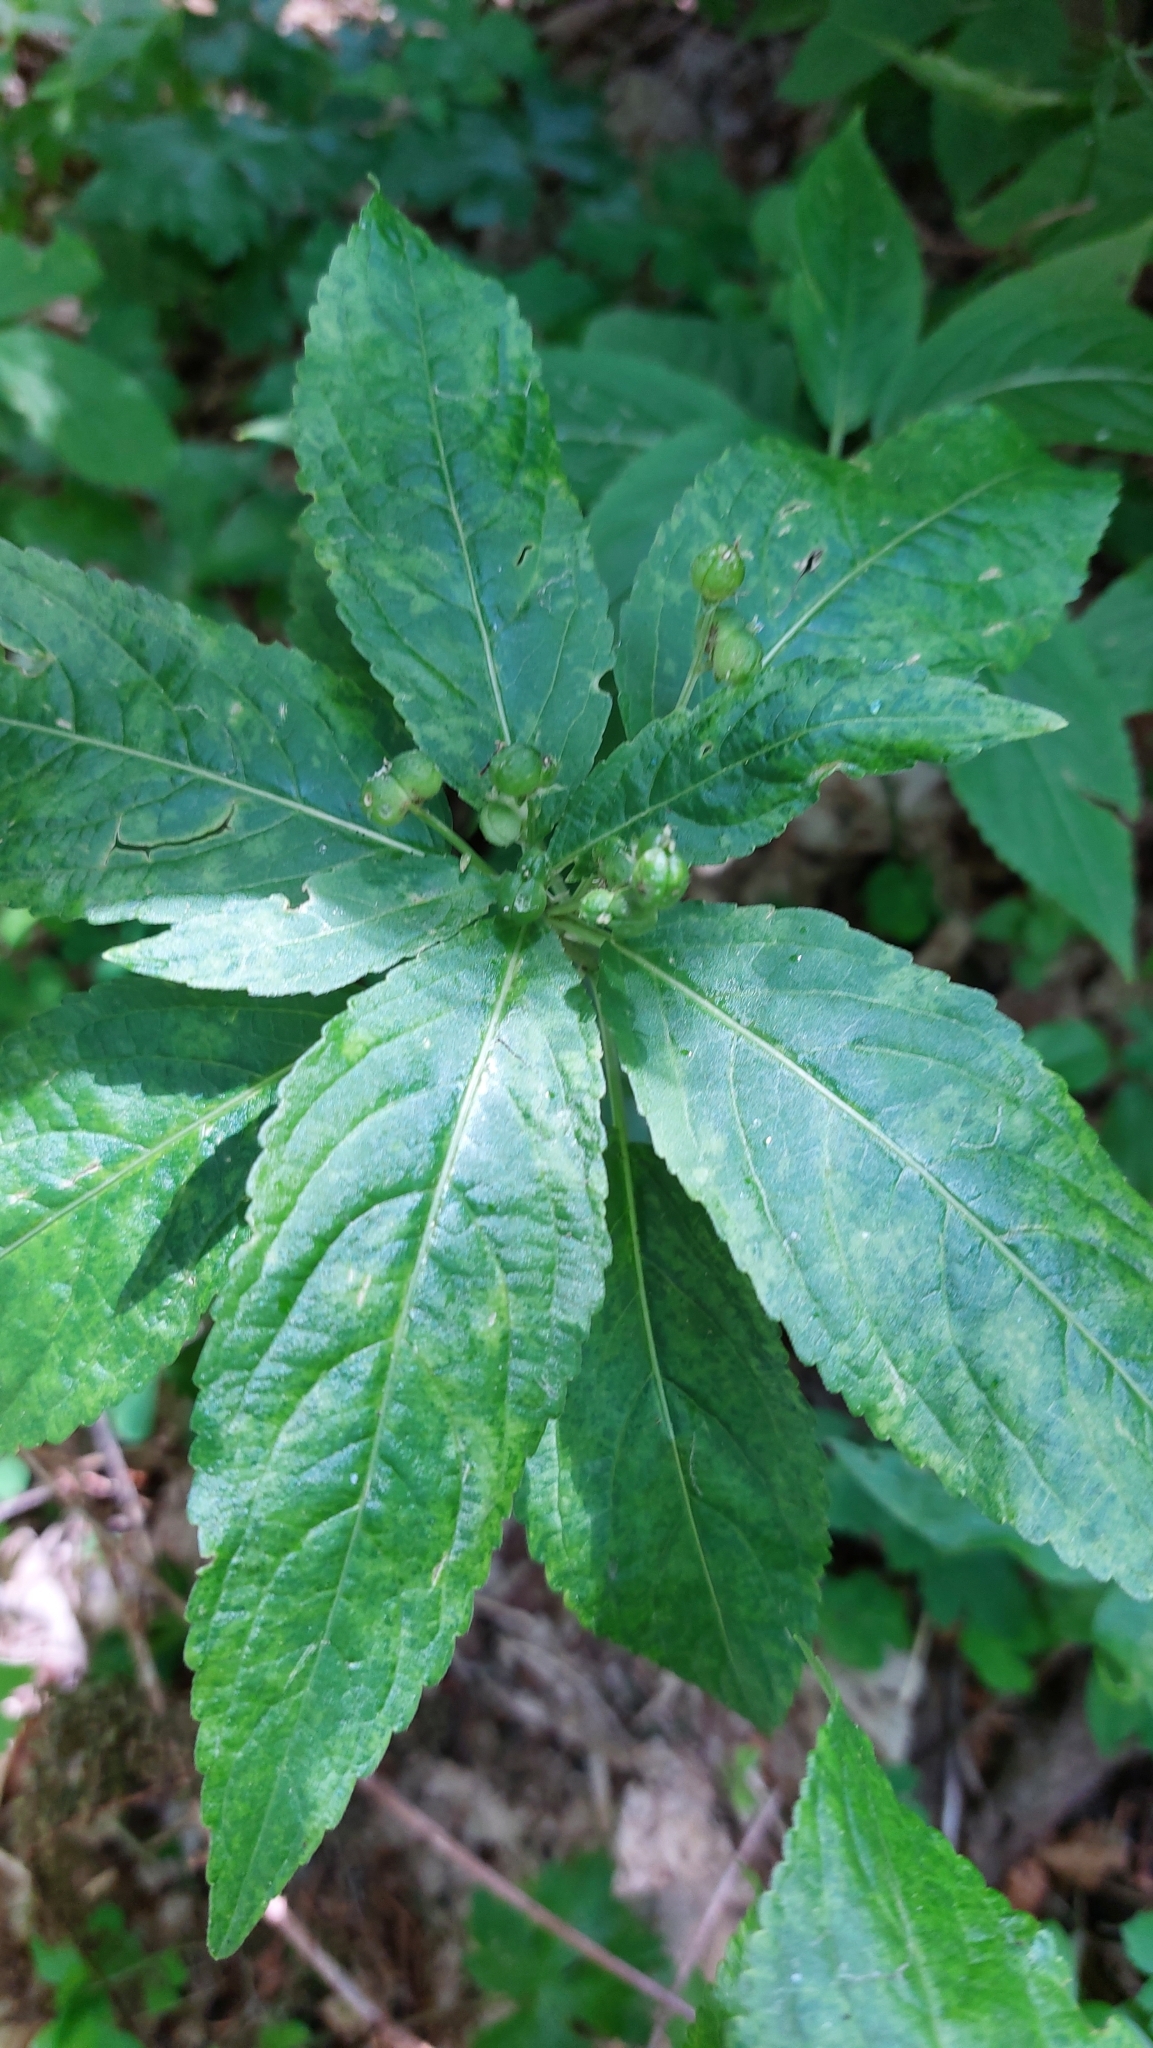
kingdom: Plantae
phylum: Tracheophyta
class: Magnoliopsida
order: Malpighiales
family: Euphorbiaceae
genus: Mercurialis
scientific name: Mercurialis perennis
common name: Dog mercury
